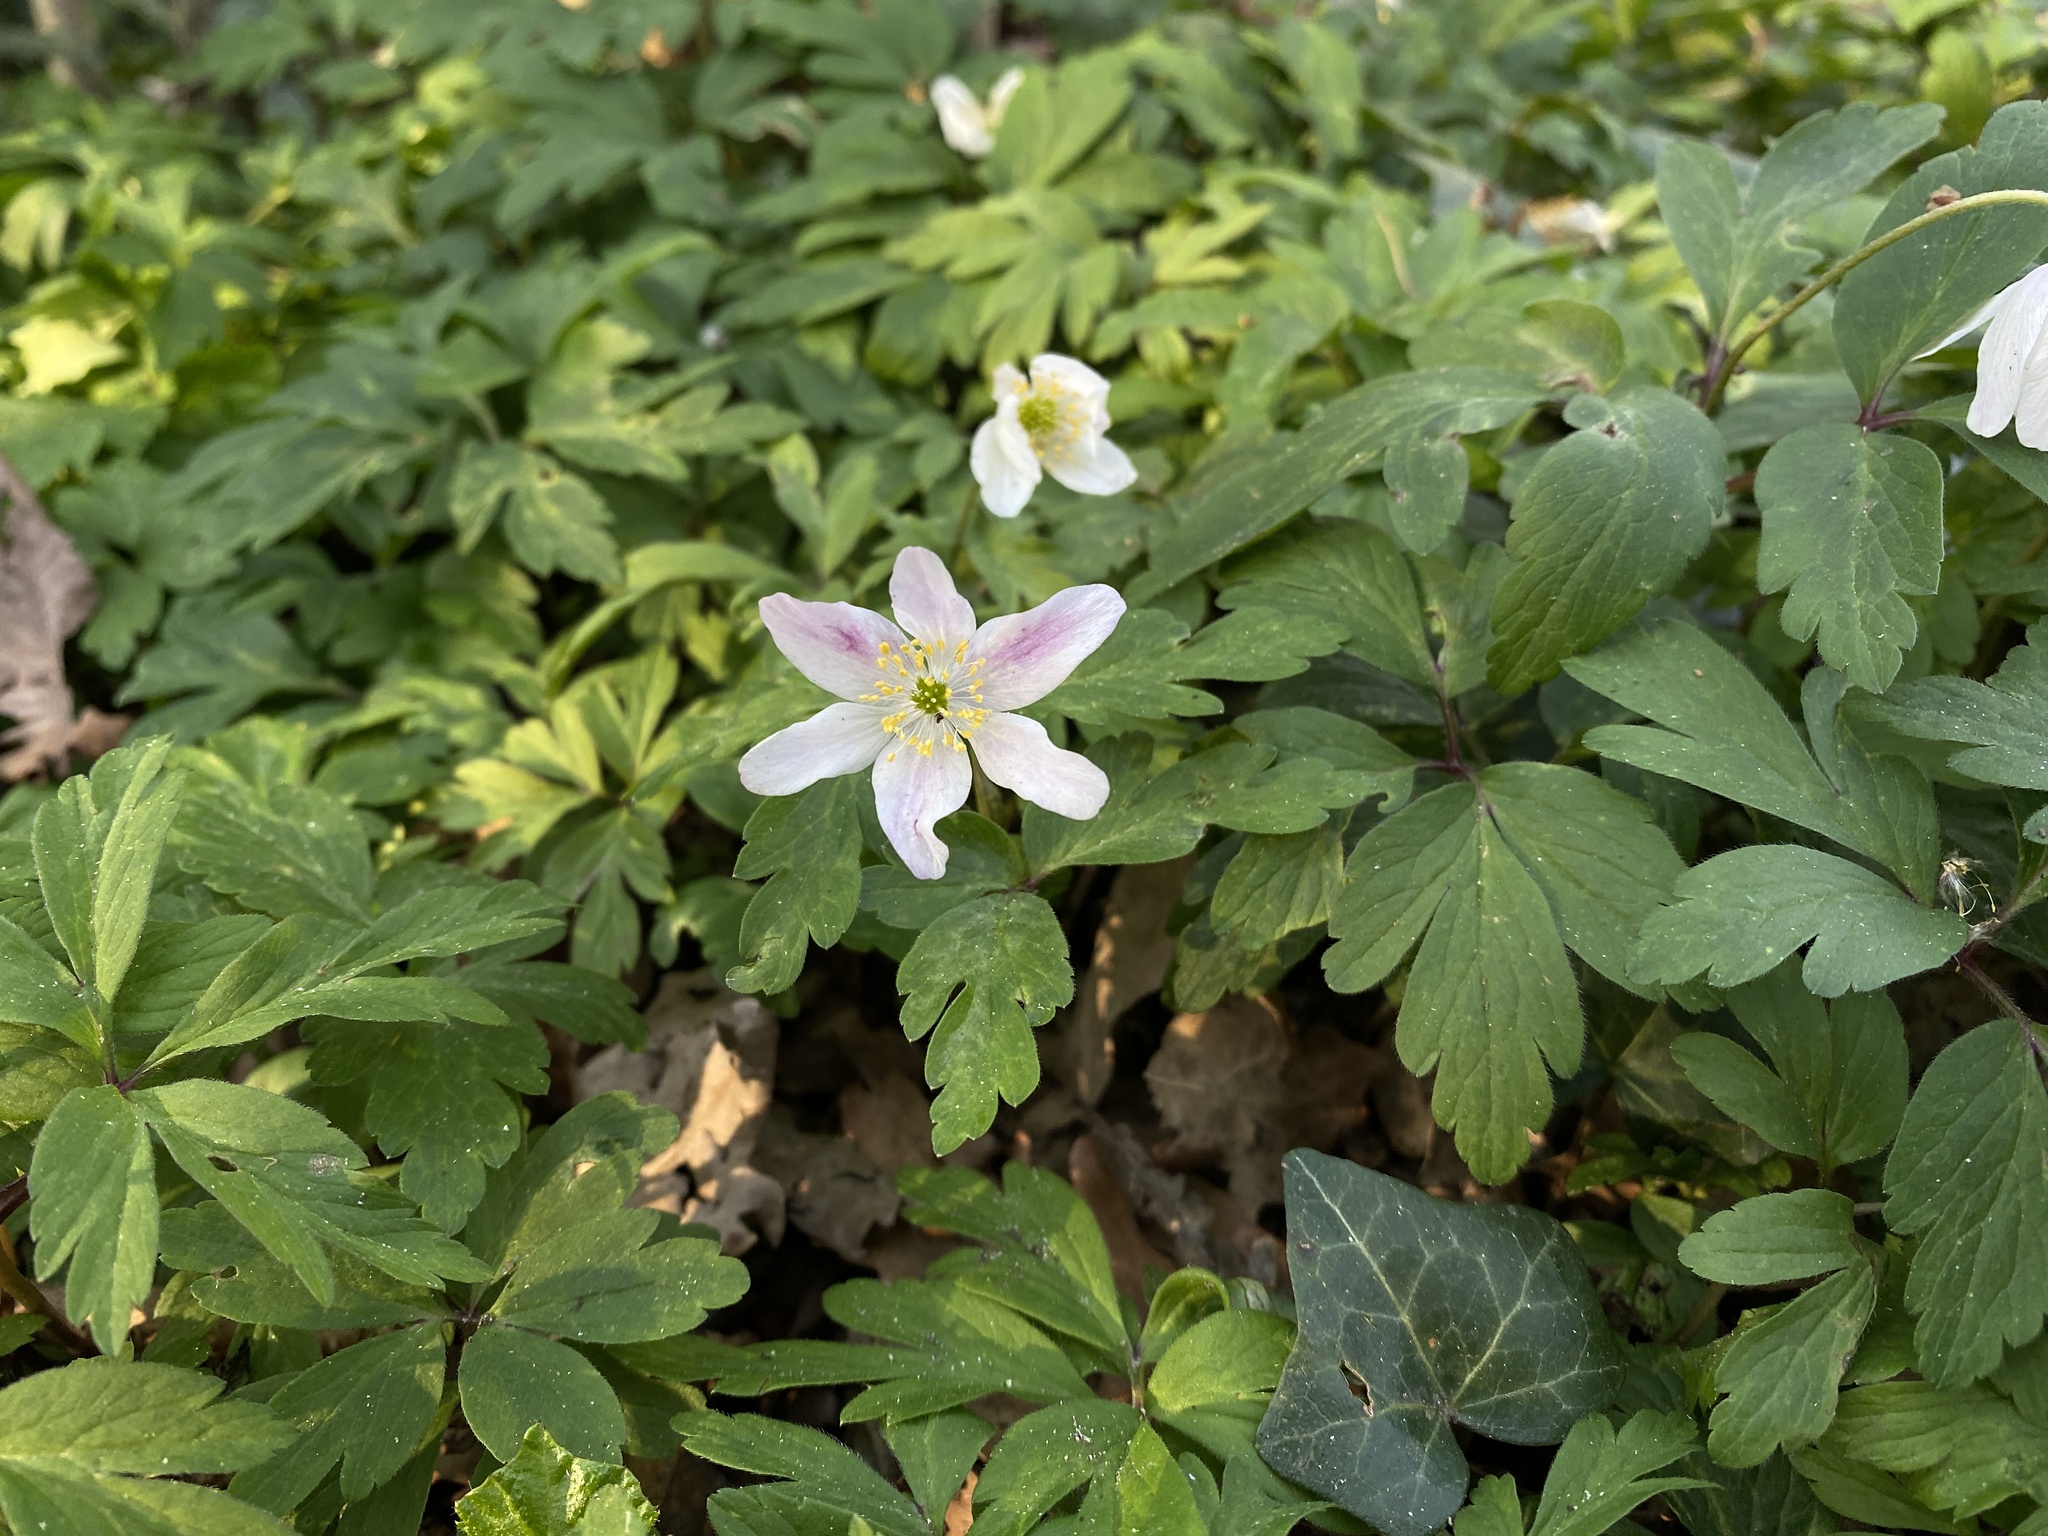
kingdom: Plantae
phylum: Tracheophyta
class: Magnoliopsida
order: Ranunculales
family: Ranunculaceae
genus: Anemone
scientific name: Anemone nemorosa
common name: Wood anemone
